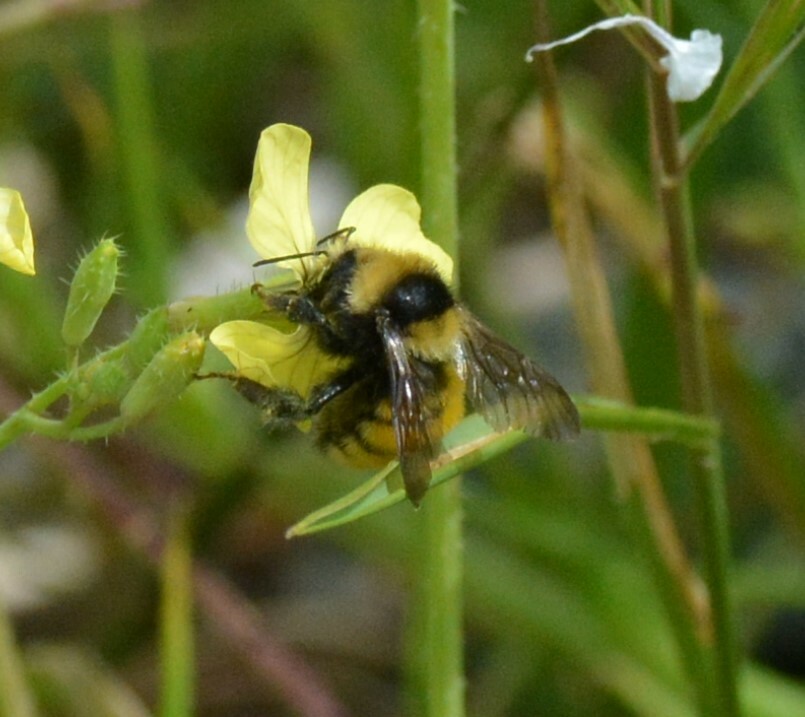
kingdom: Animalia
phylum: Arthropoda
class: Insecta
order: Hymenoptera
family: Apidae
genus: Bombus
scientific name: Bombus borealis
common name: Northern amber bumble bee
